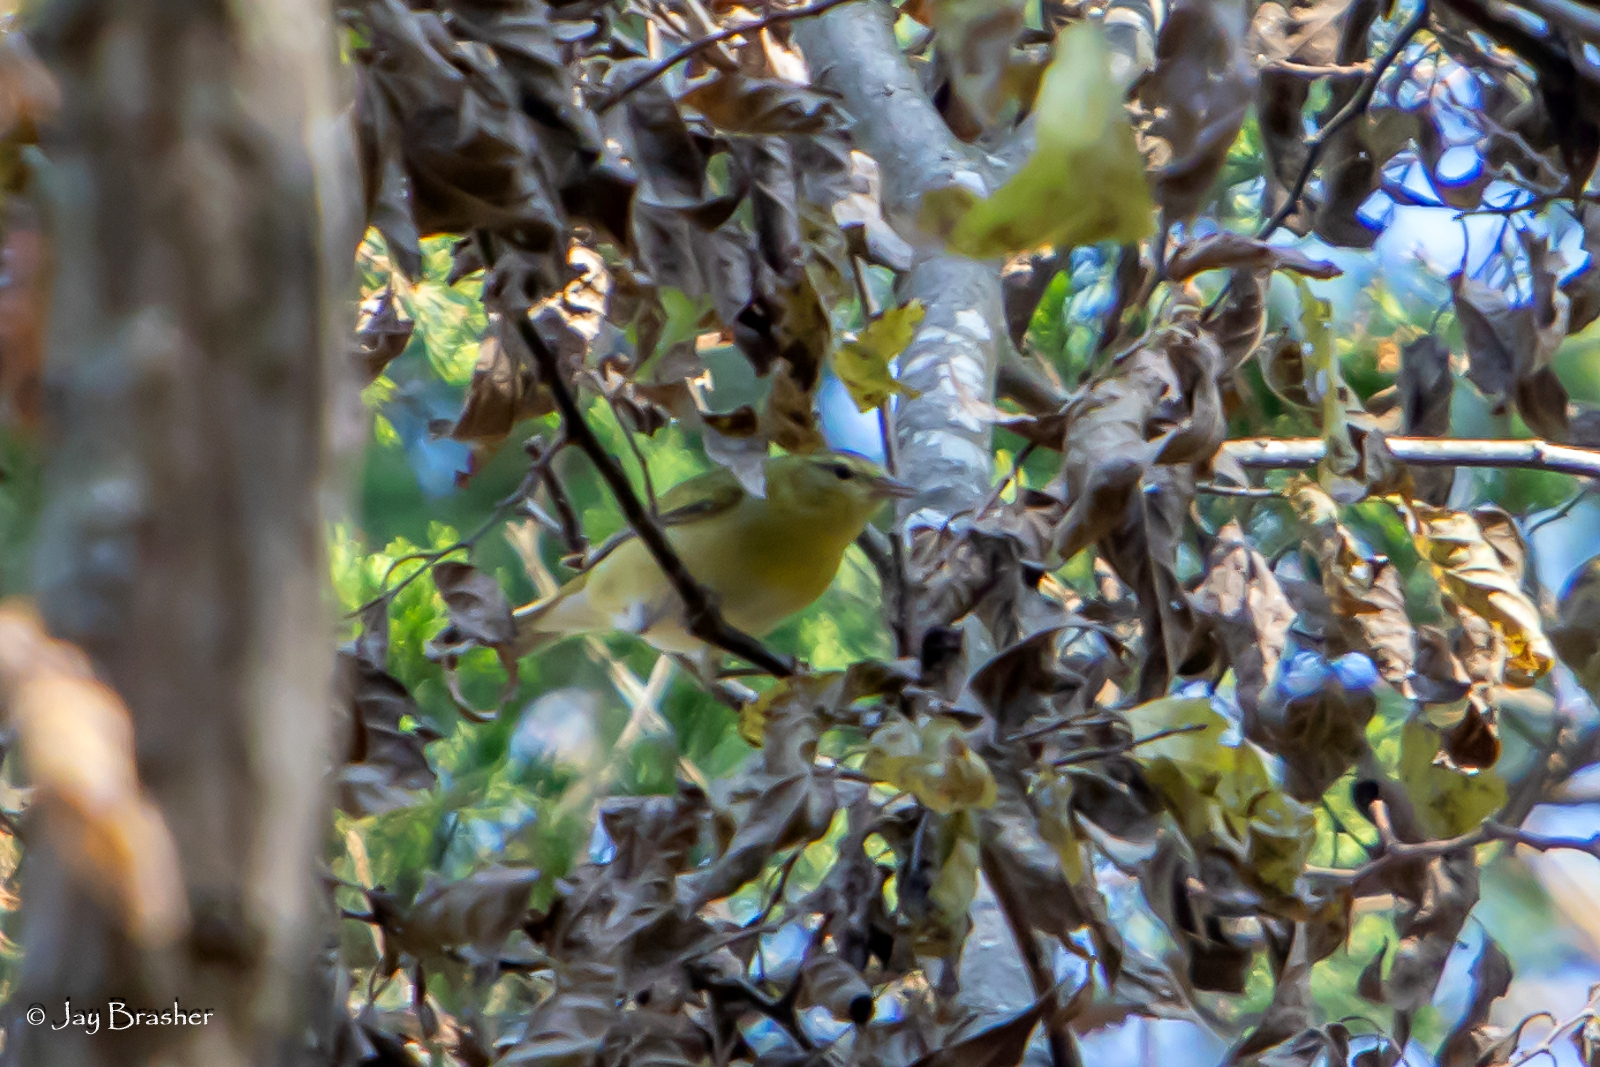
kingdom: Animalia
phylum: Chordata
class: Aves
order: Passeriformes
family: Parulidae
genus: Leiothlypis
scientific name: Leiothlypis peregrina
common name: Tennessee warbler
